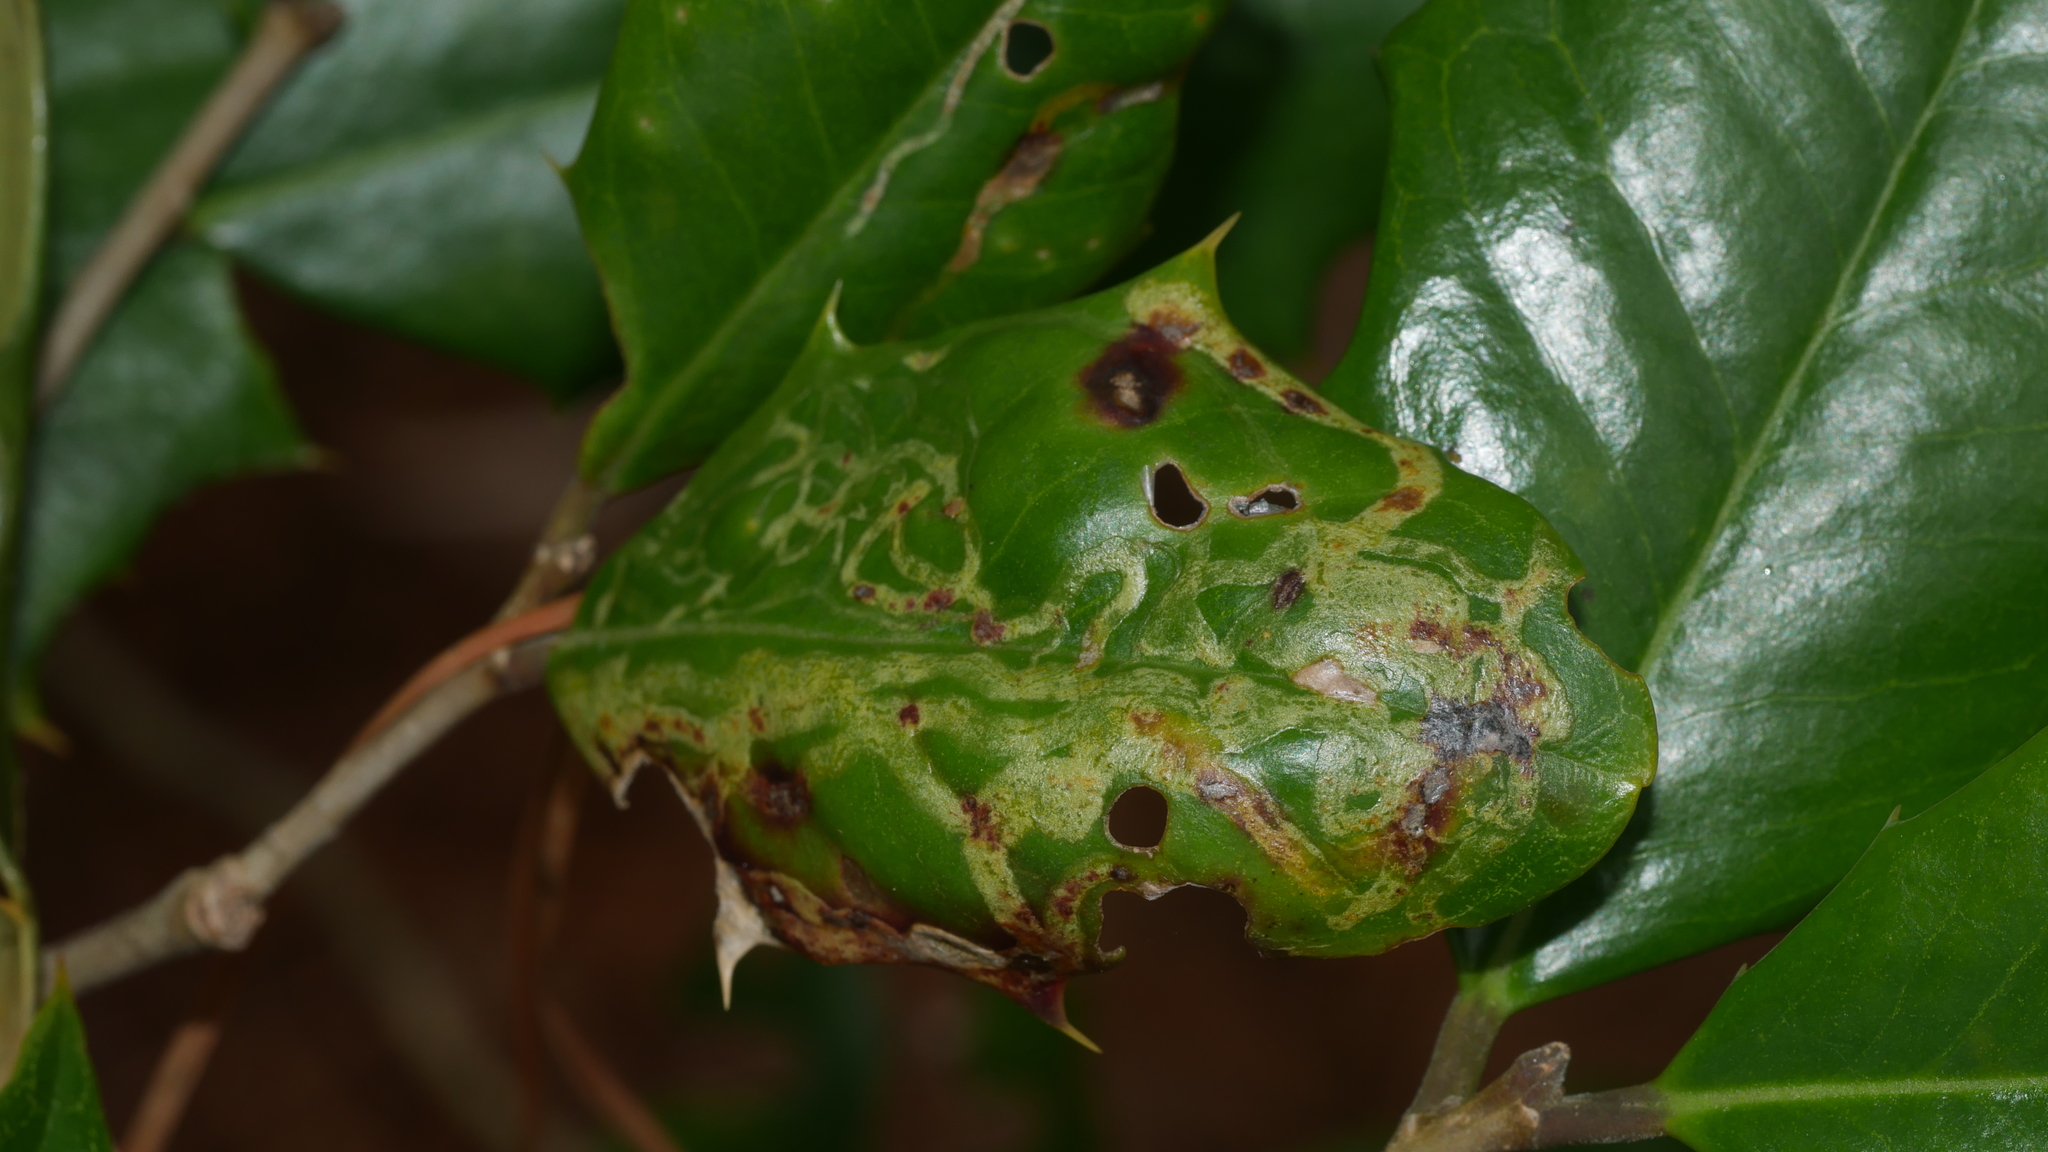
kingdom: Animalia
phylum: Arthropoda
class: Insecta
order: Diptera
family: Agromyzidae
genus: Phytomyza
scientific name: Phytomyza opacae
